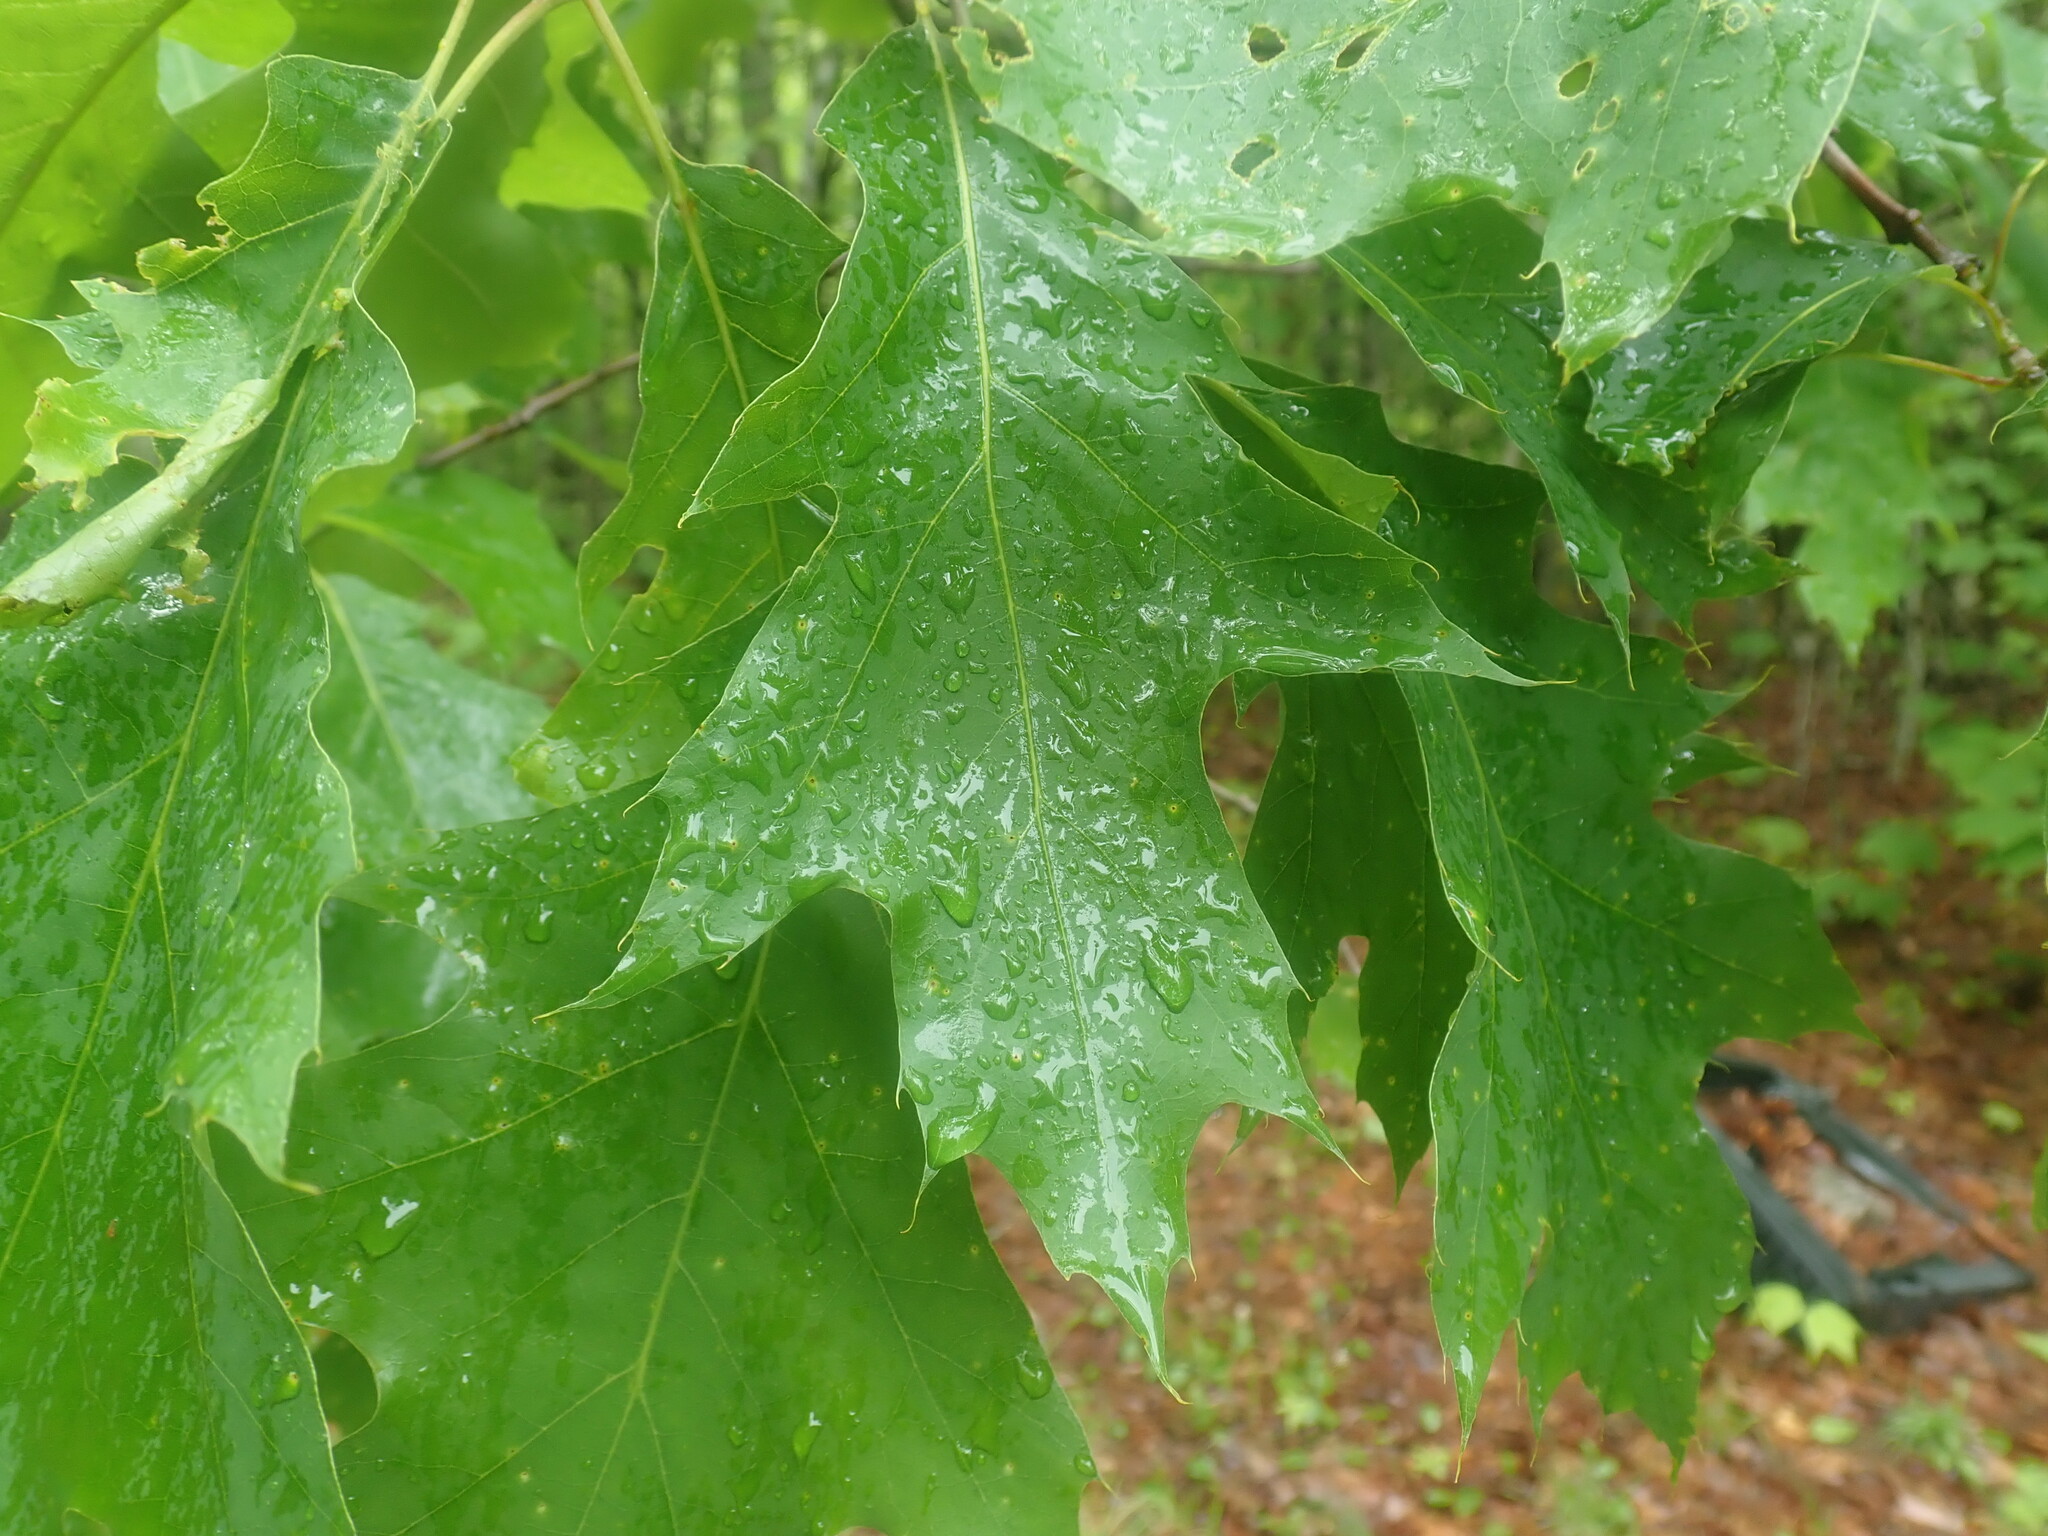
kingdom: Plantae
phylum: Tracheophyta
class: Magnoliopsida
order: Fagales
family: Fagaceae
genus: Quercus
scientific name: Quercus rubra
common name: Red oak
